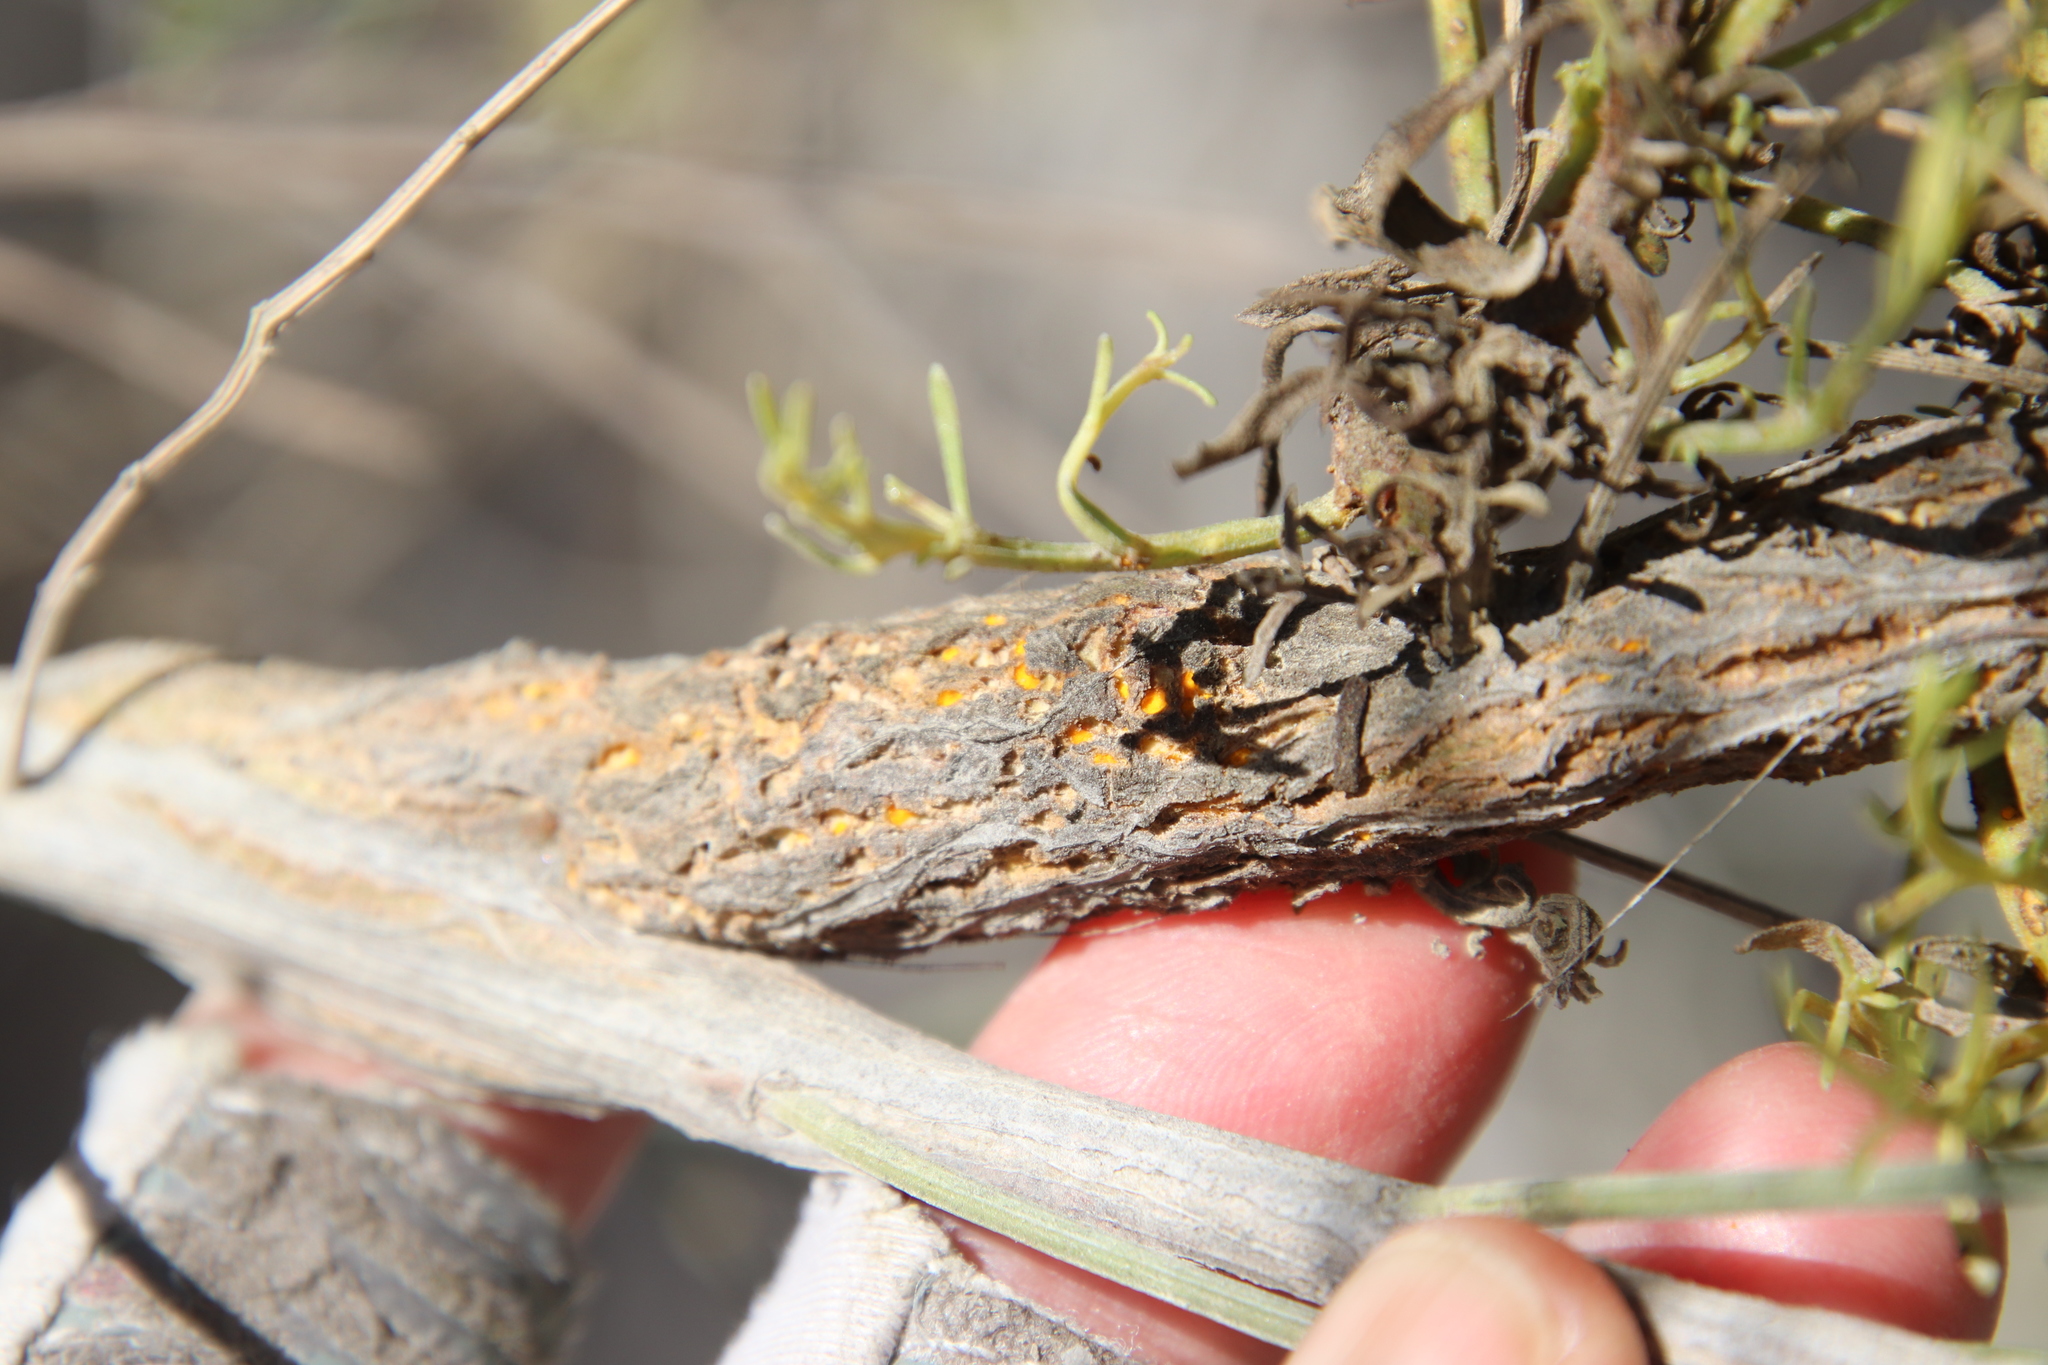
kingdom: Fungi
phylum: Basidiomycota
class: Pucciniomycetes
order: Pucciniales
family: Pucciniaceae
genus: Eriosporangium
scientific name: Eriosporangium evadens
